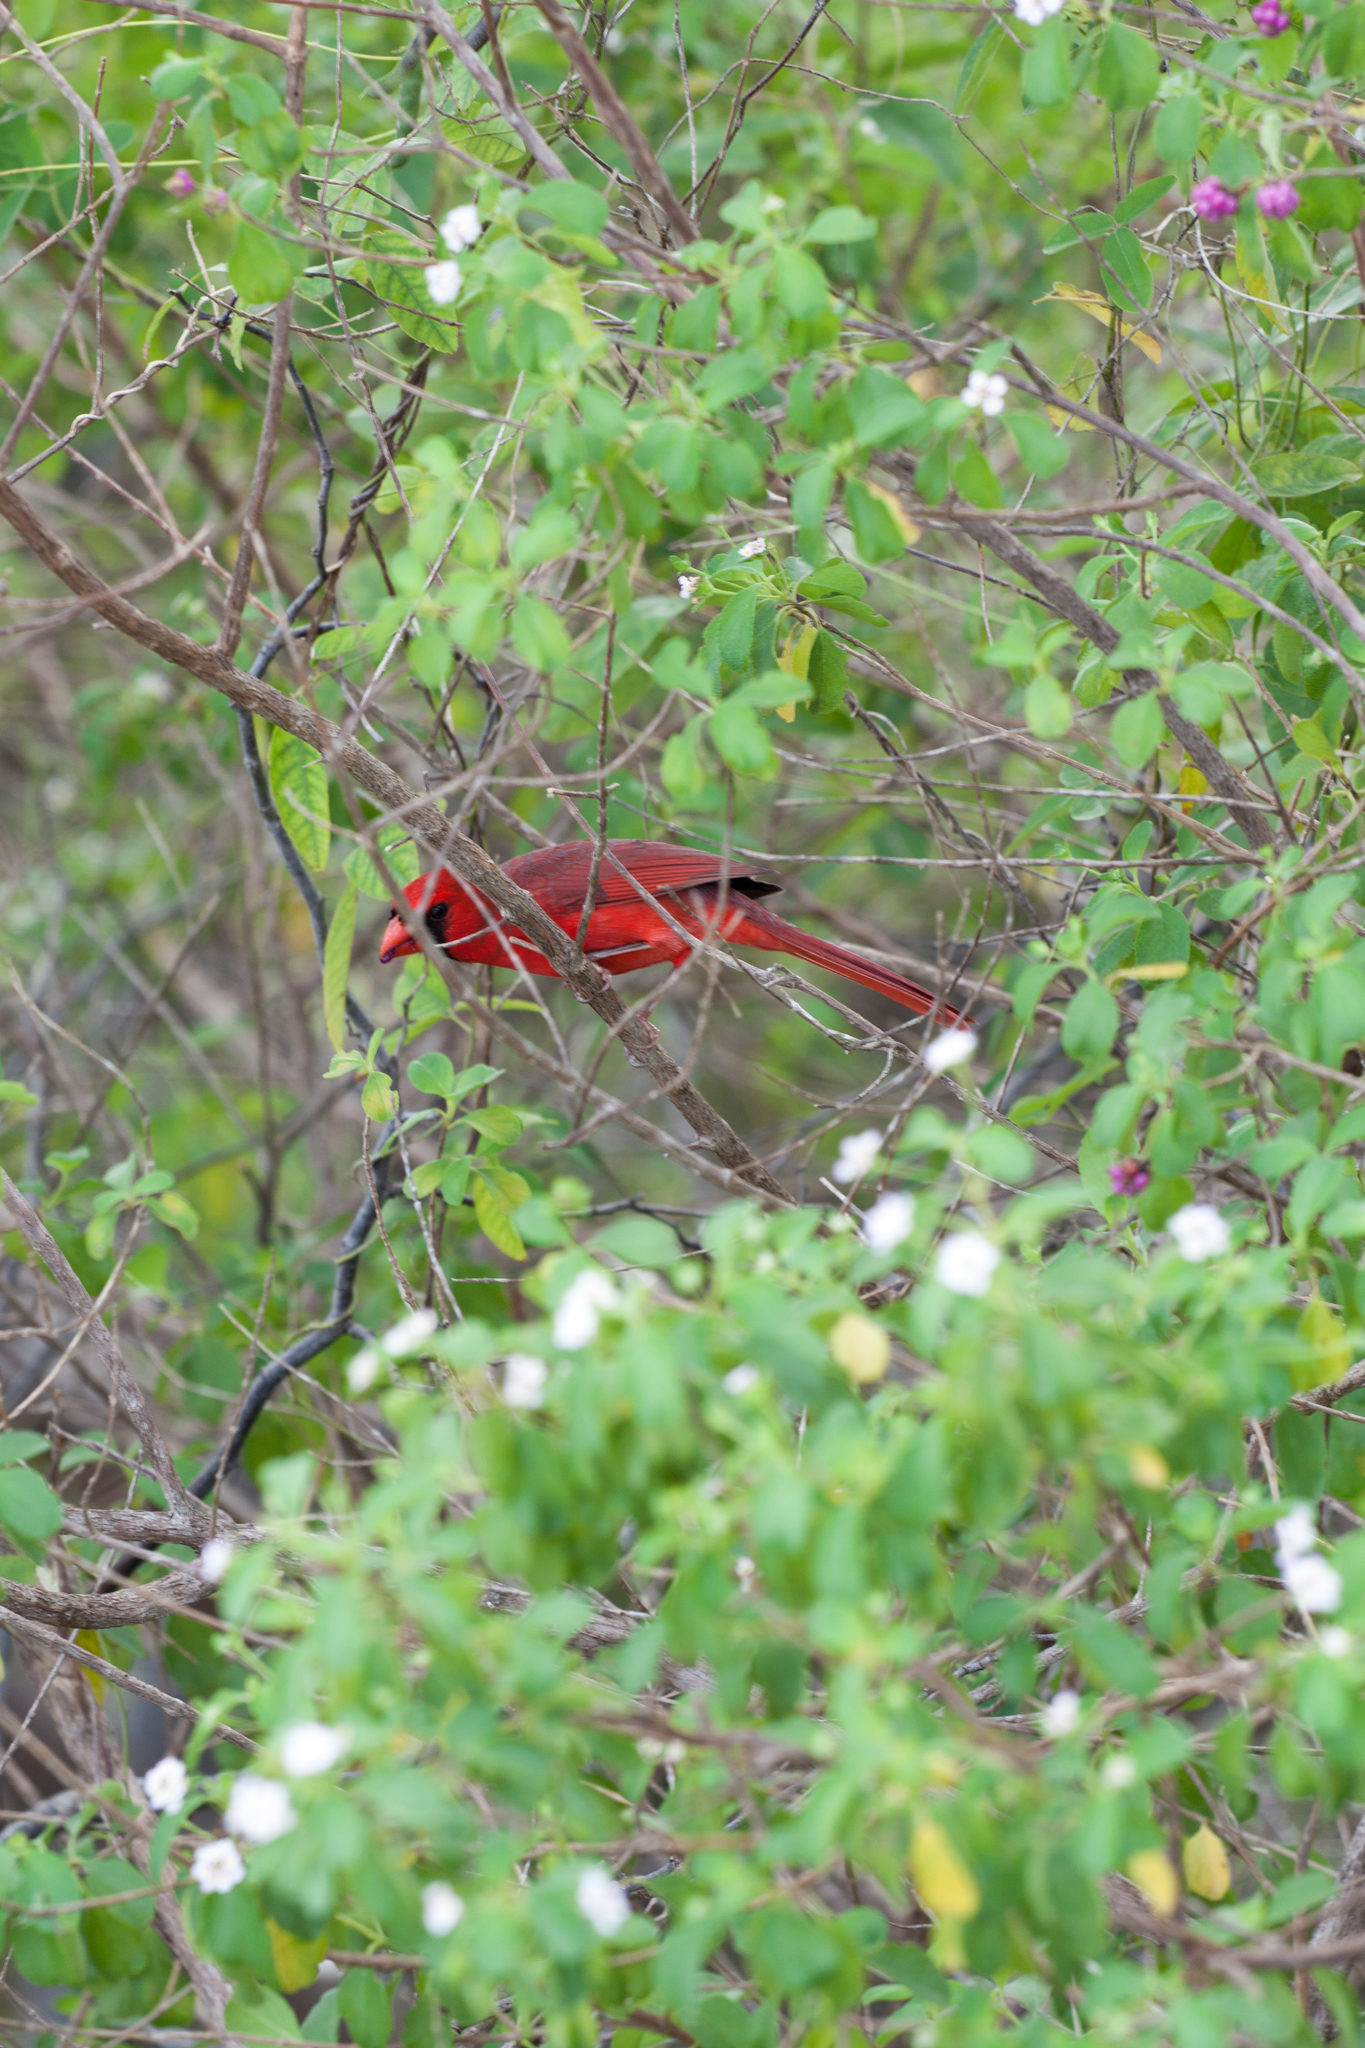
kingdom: Animalia
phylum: Chordata
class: Aves
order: Passeriformes
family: Cardinalidae
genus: Cardinalis
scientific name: Cardinalis cardinalis
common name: Northern cardinal
